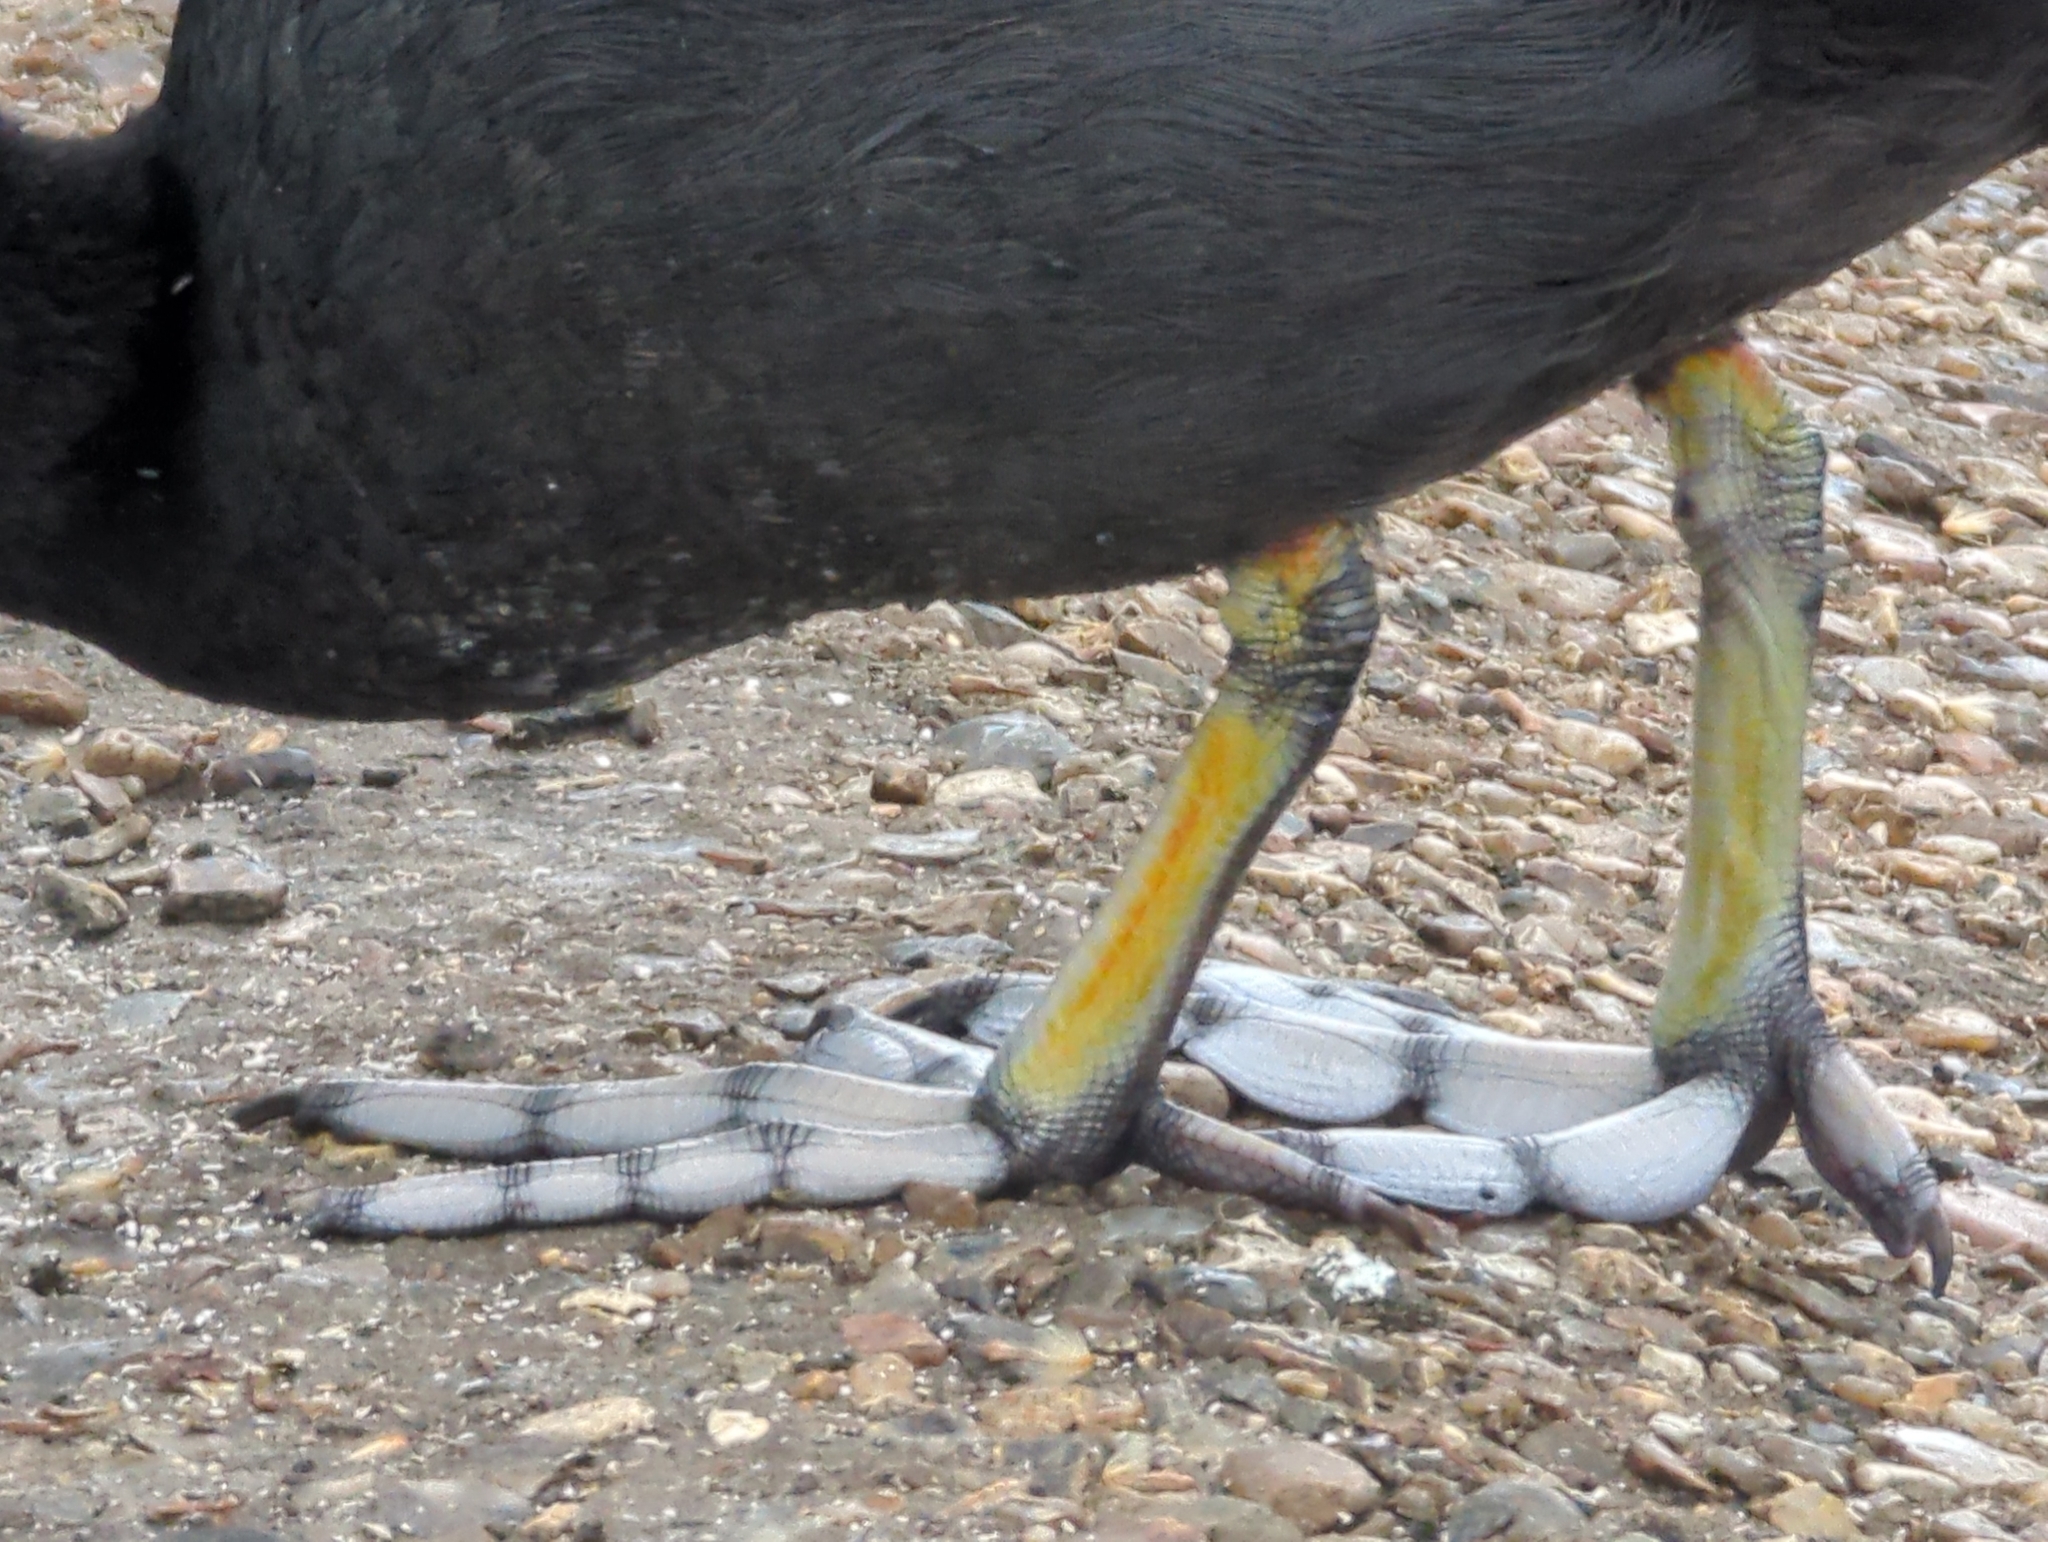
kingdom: Animalia
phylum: Chordata
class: Aves
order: Gruiformes
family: Rallidae
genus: Fulica
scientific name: Fulica atra
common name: Eurasian coot
